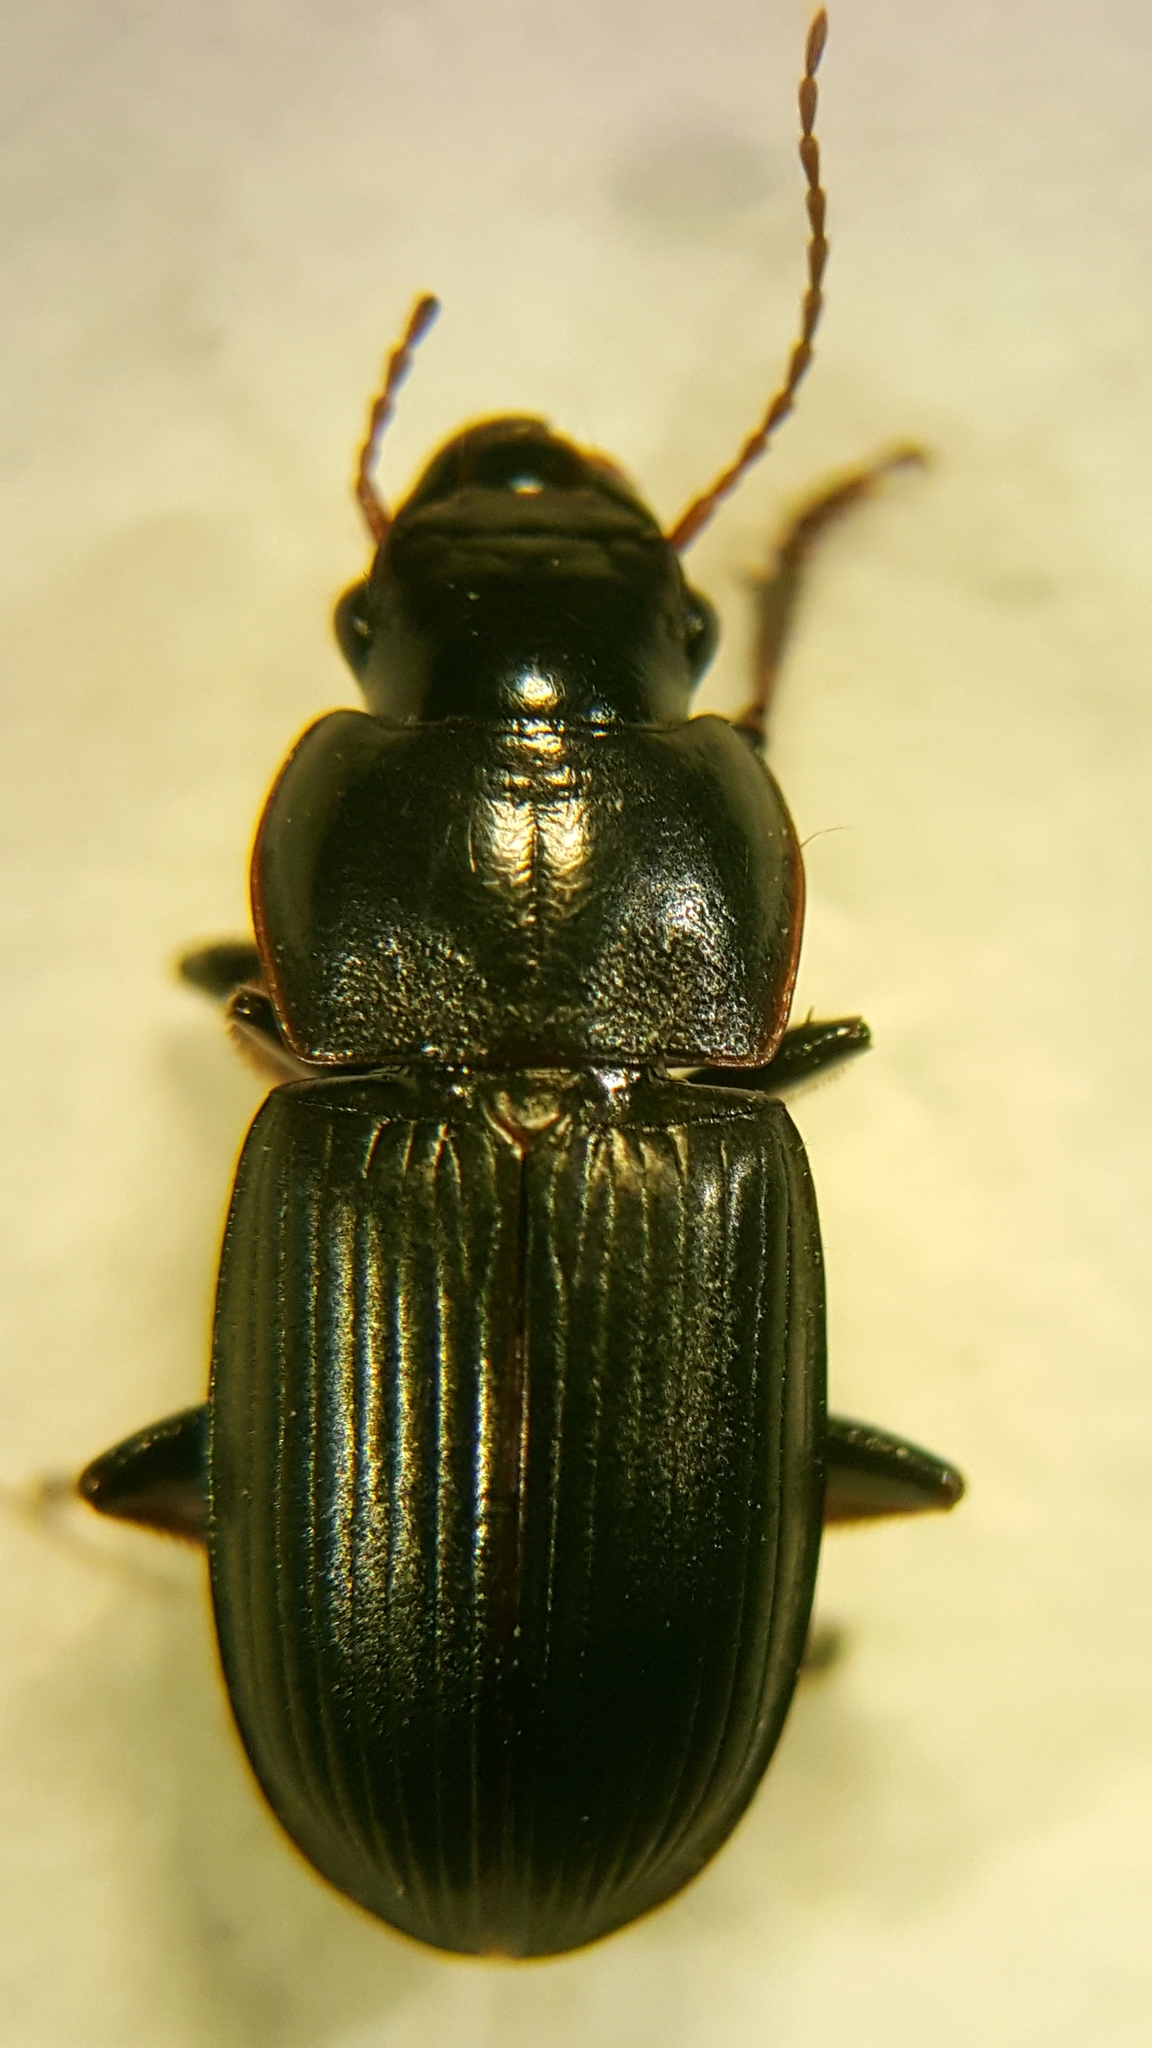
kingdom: Animalia
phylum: Arthropoda
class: Insecta
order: Coleoptera
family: Carabidae
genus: Harpalus
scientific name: Harpalus solitaris
